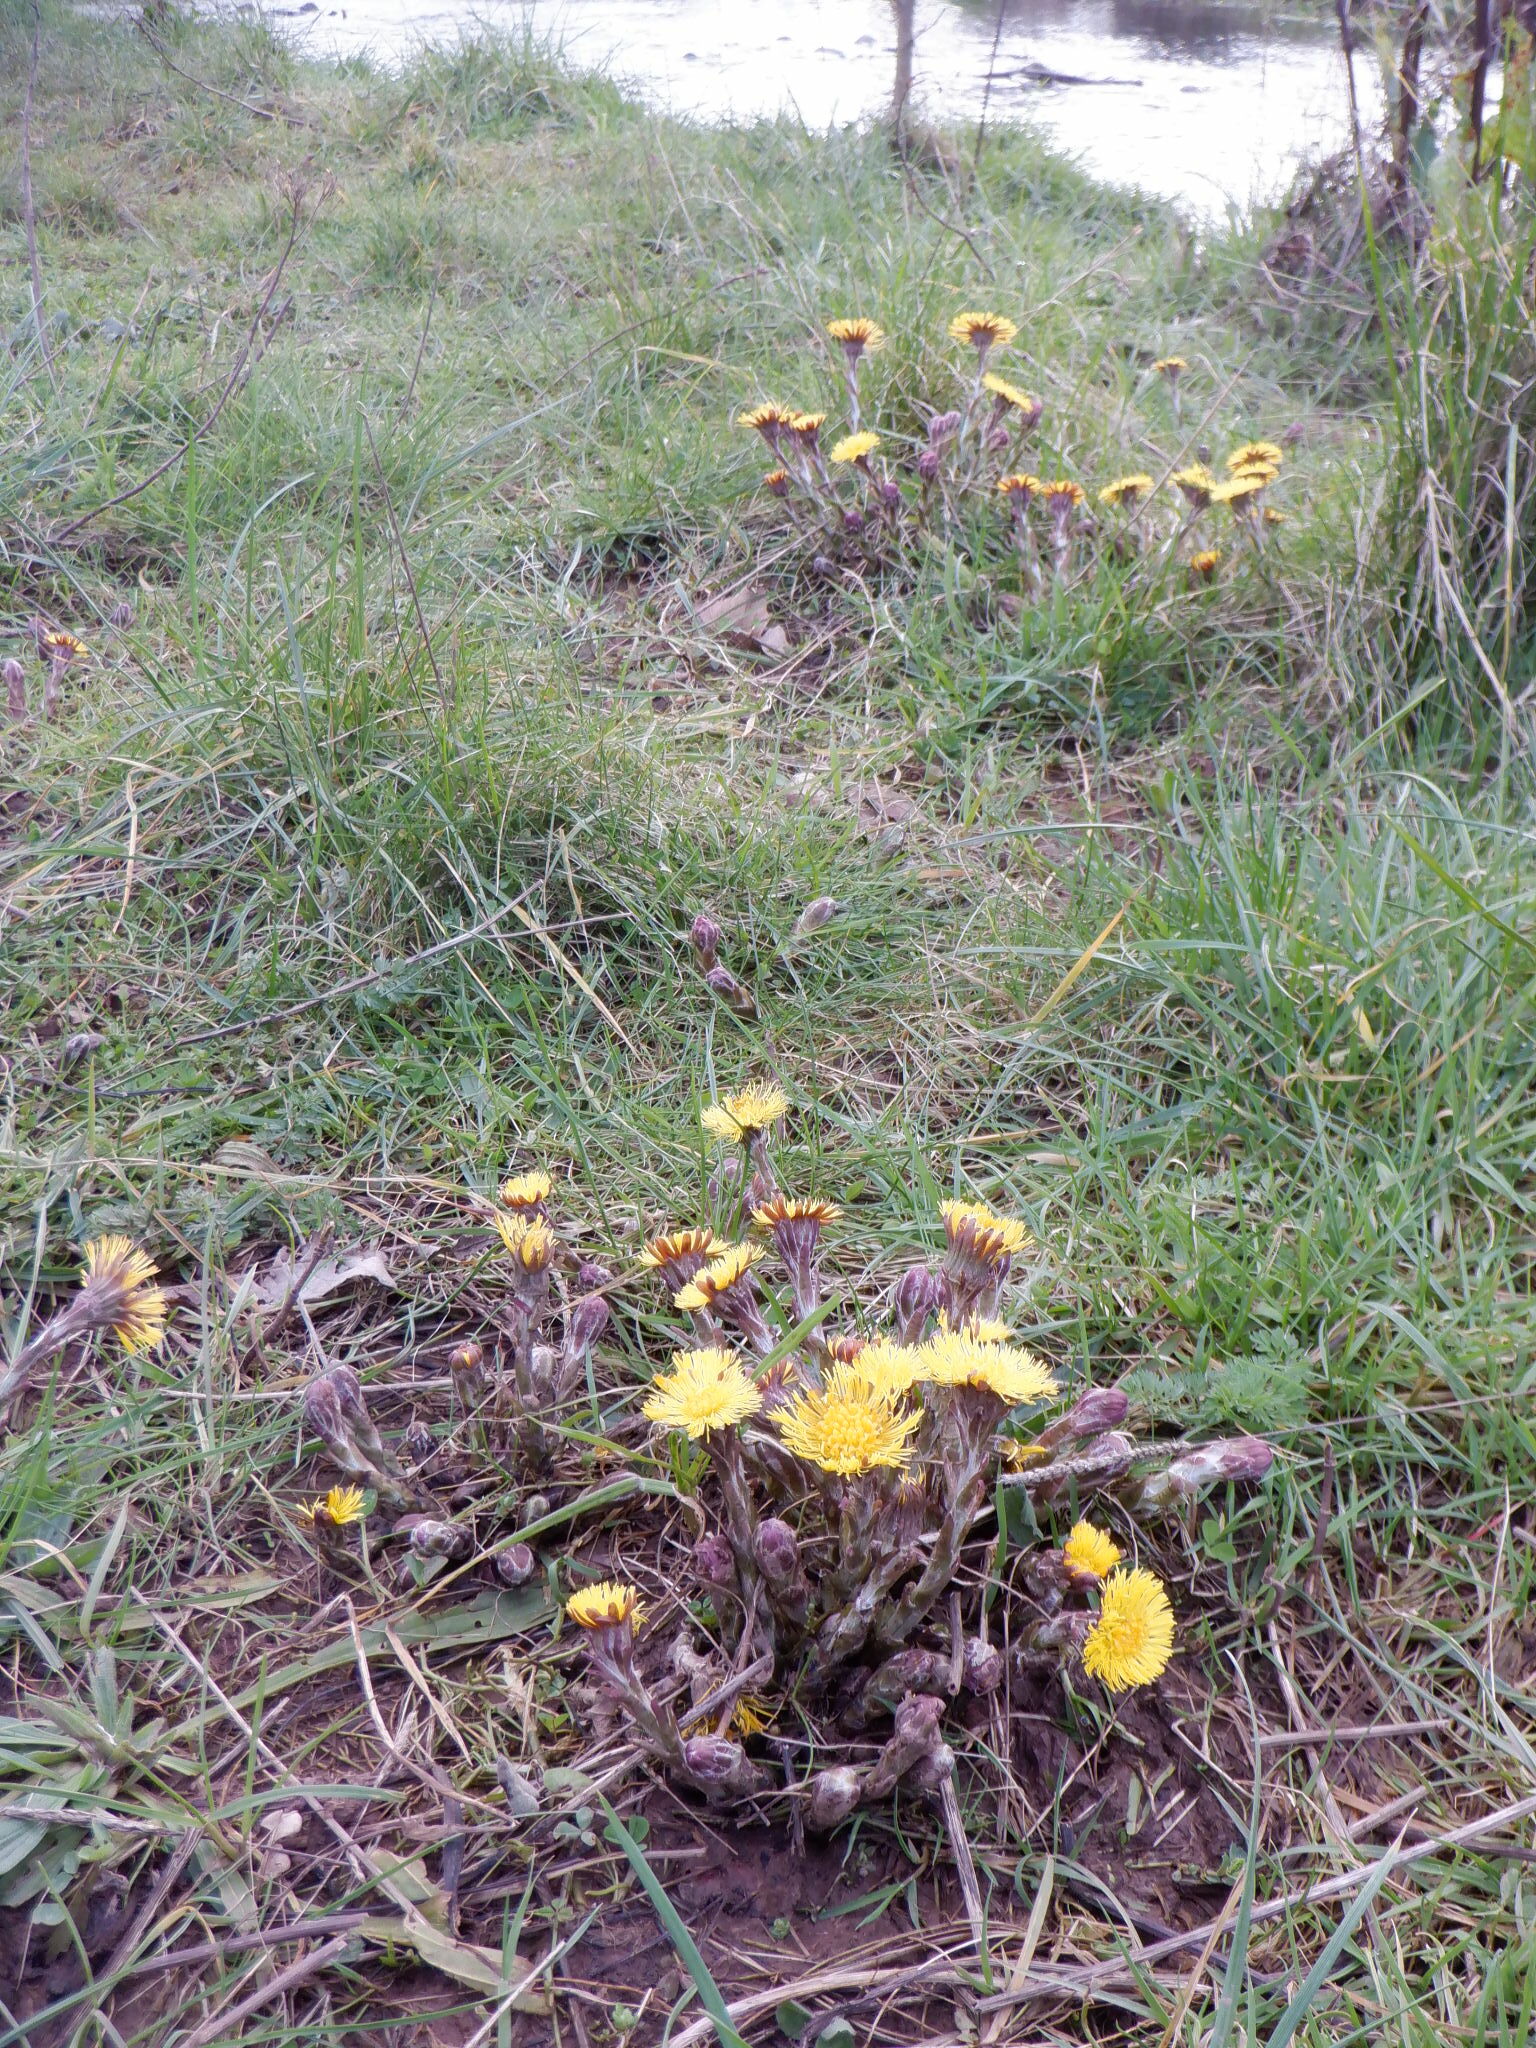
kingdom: Plantae
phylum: Tracheophyta
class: Magnoliopsida
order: Asterales
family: Asteraceae
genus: Tussilago
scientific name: Tussilago farfara
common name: Coltsfoot
